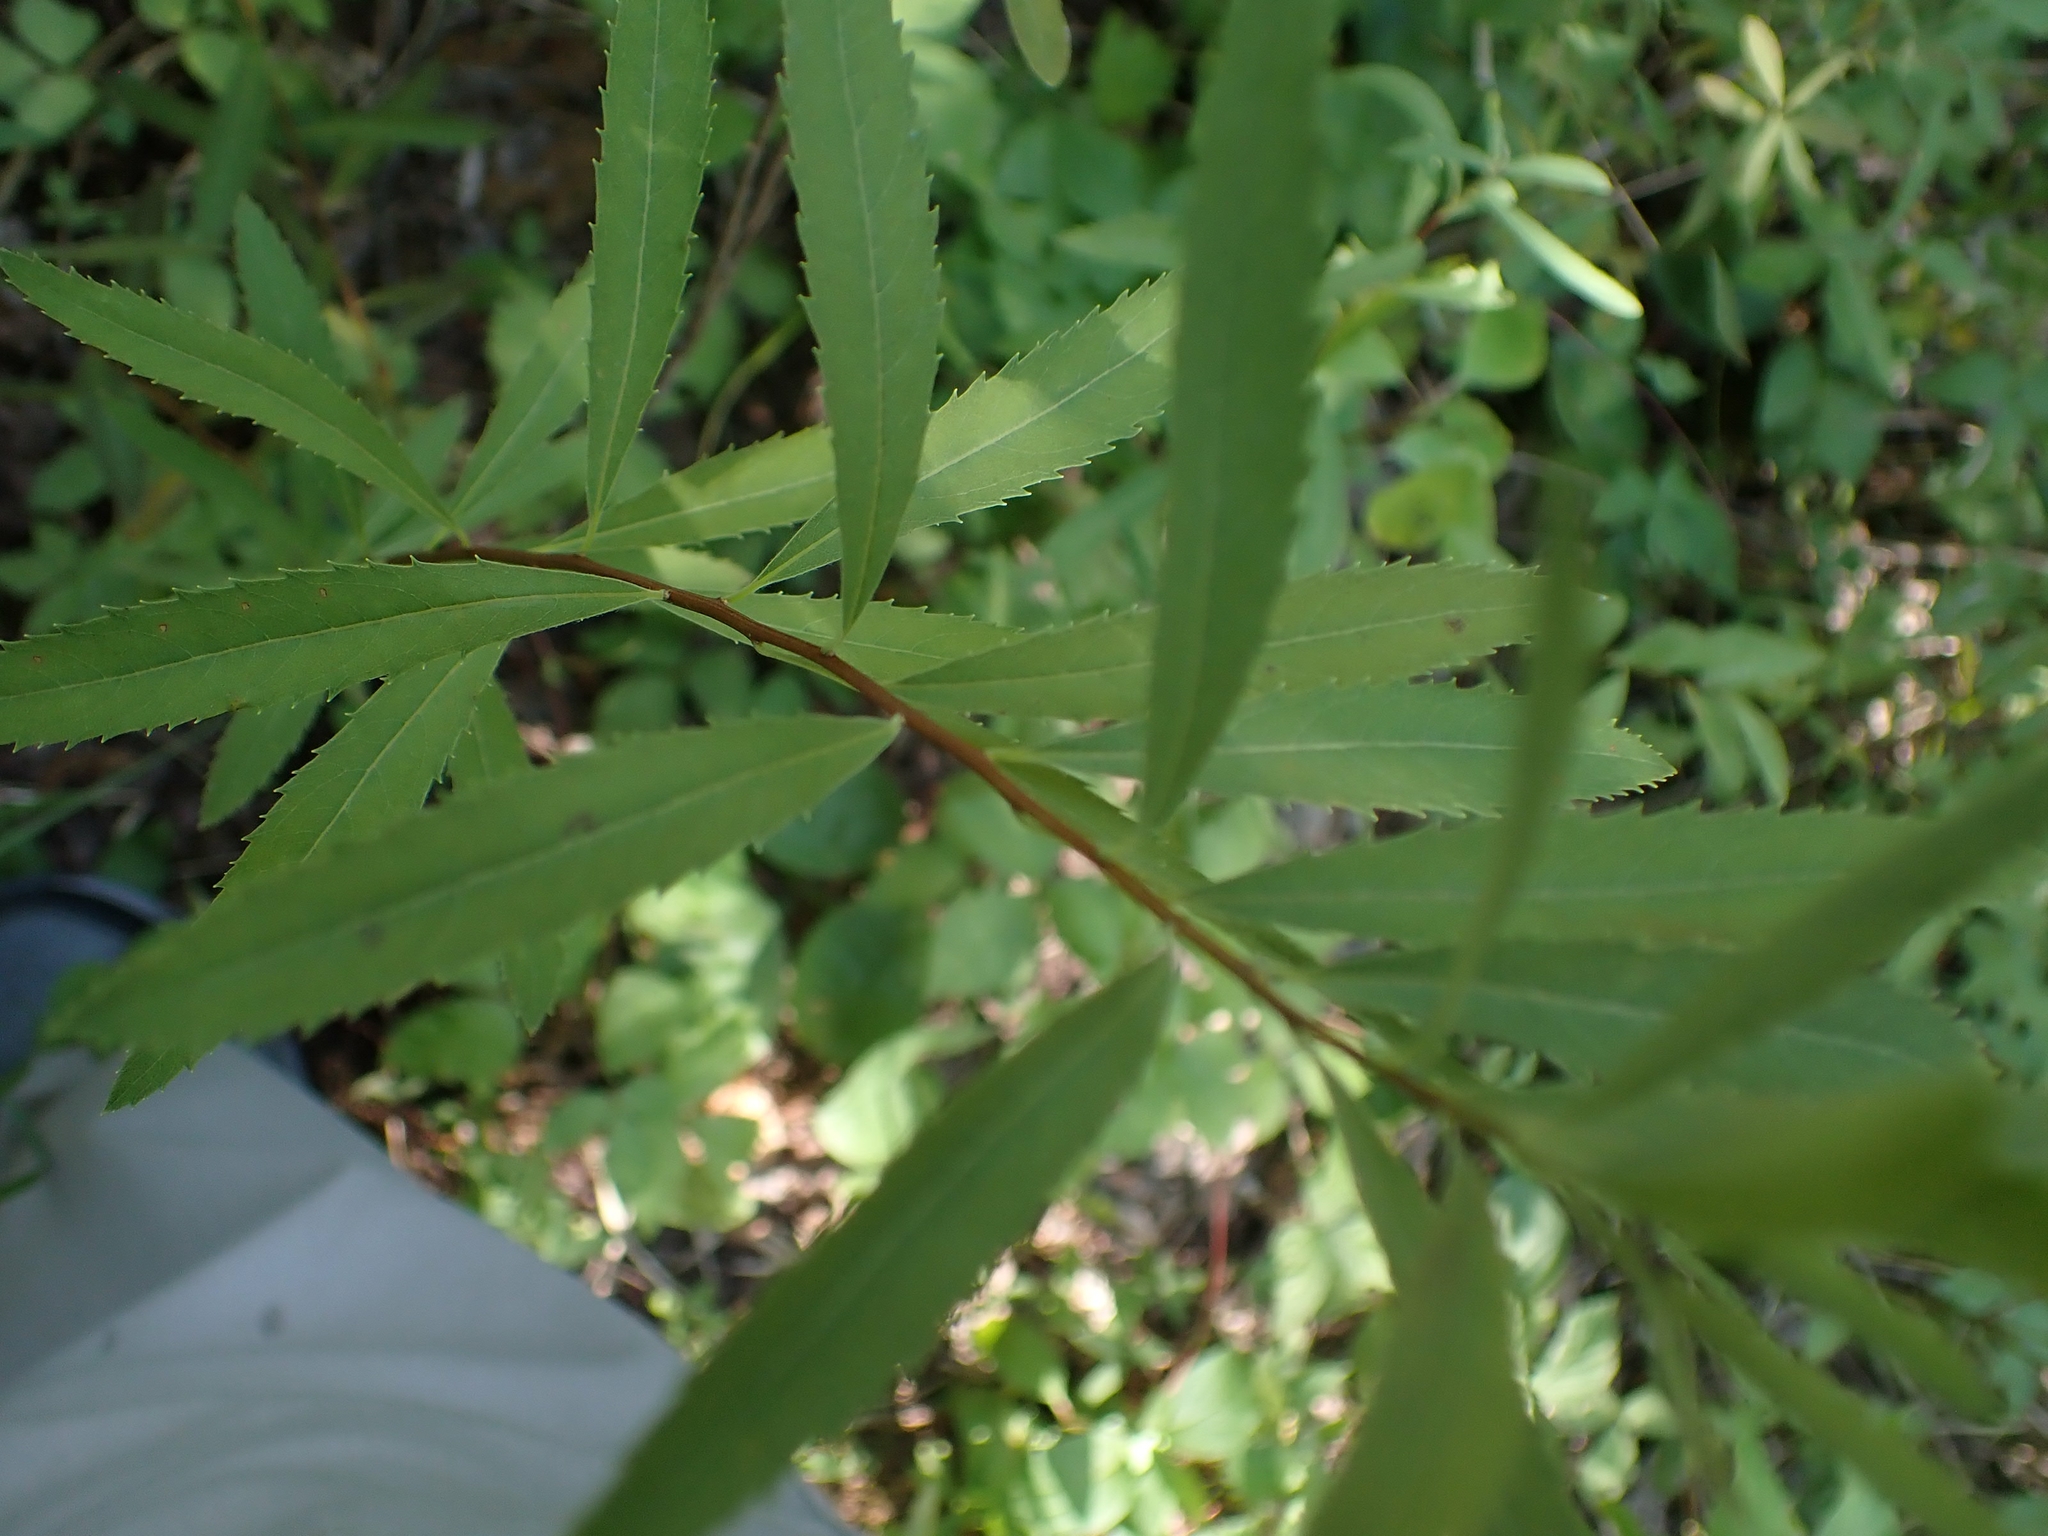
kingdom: Plantae
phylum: Tracheophyta
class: Magnoliopsida
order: Rosales
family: Rosaceae
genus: Spiraea
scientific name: Spiraea alba
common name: Pale bridewort
